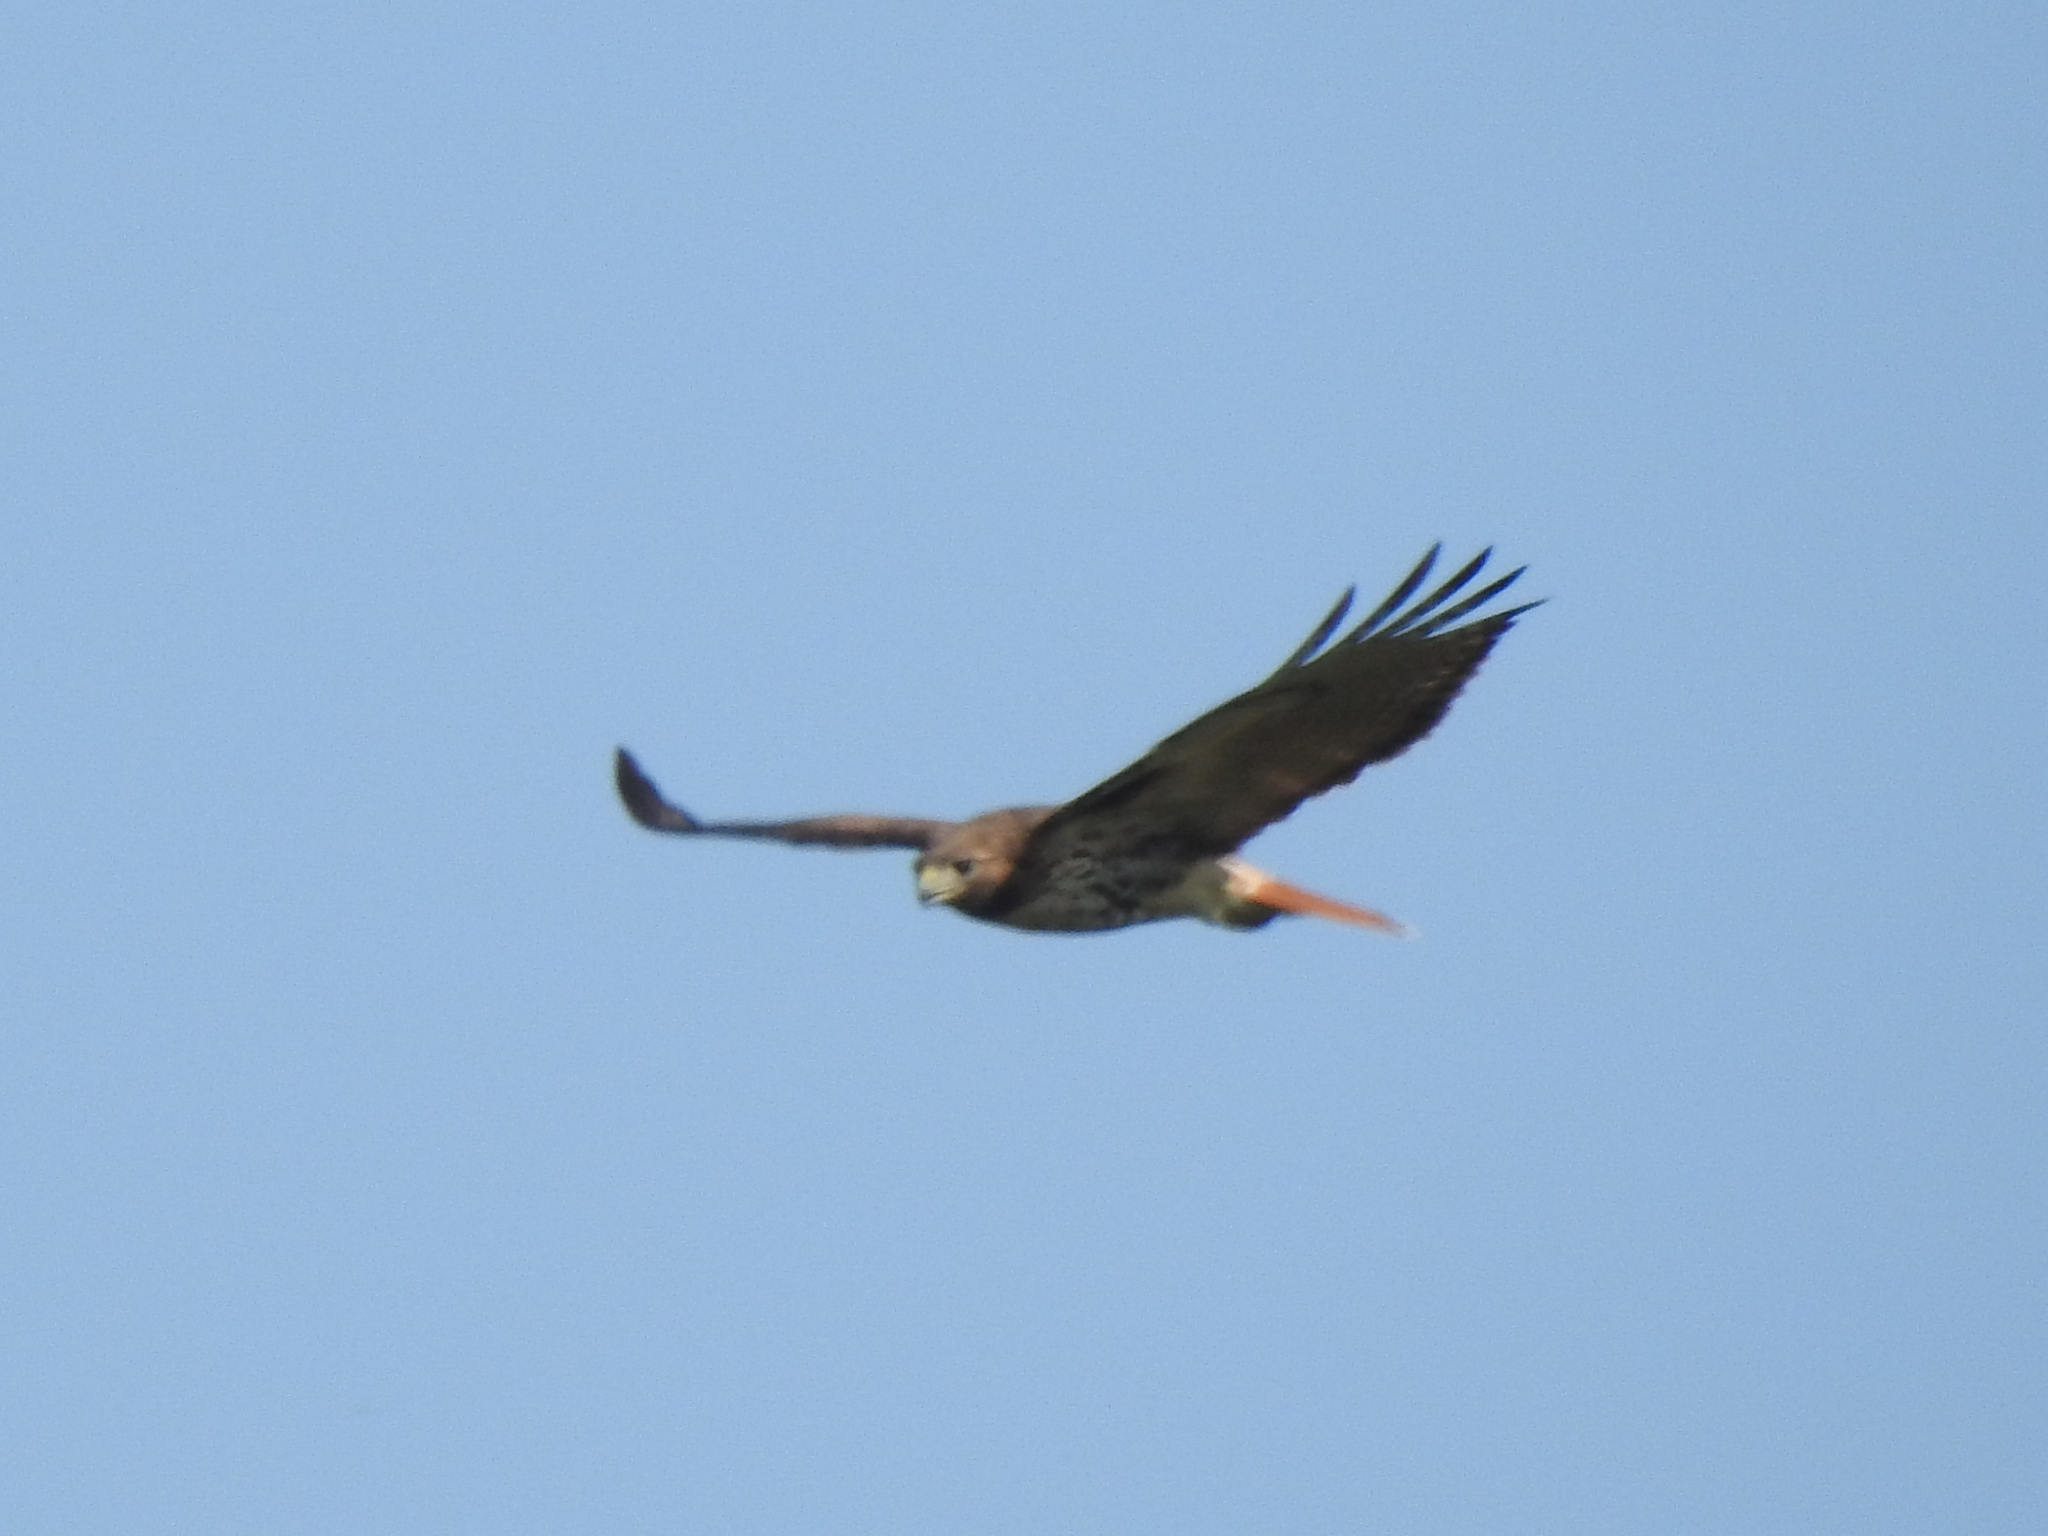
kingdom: Animalia
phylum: Chordata
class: Aves
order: Accipitriformes
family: Accipitridae
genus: Buteo
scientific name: Buteo jamaicensis
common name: Red-tailed hawk
